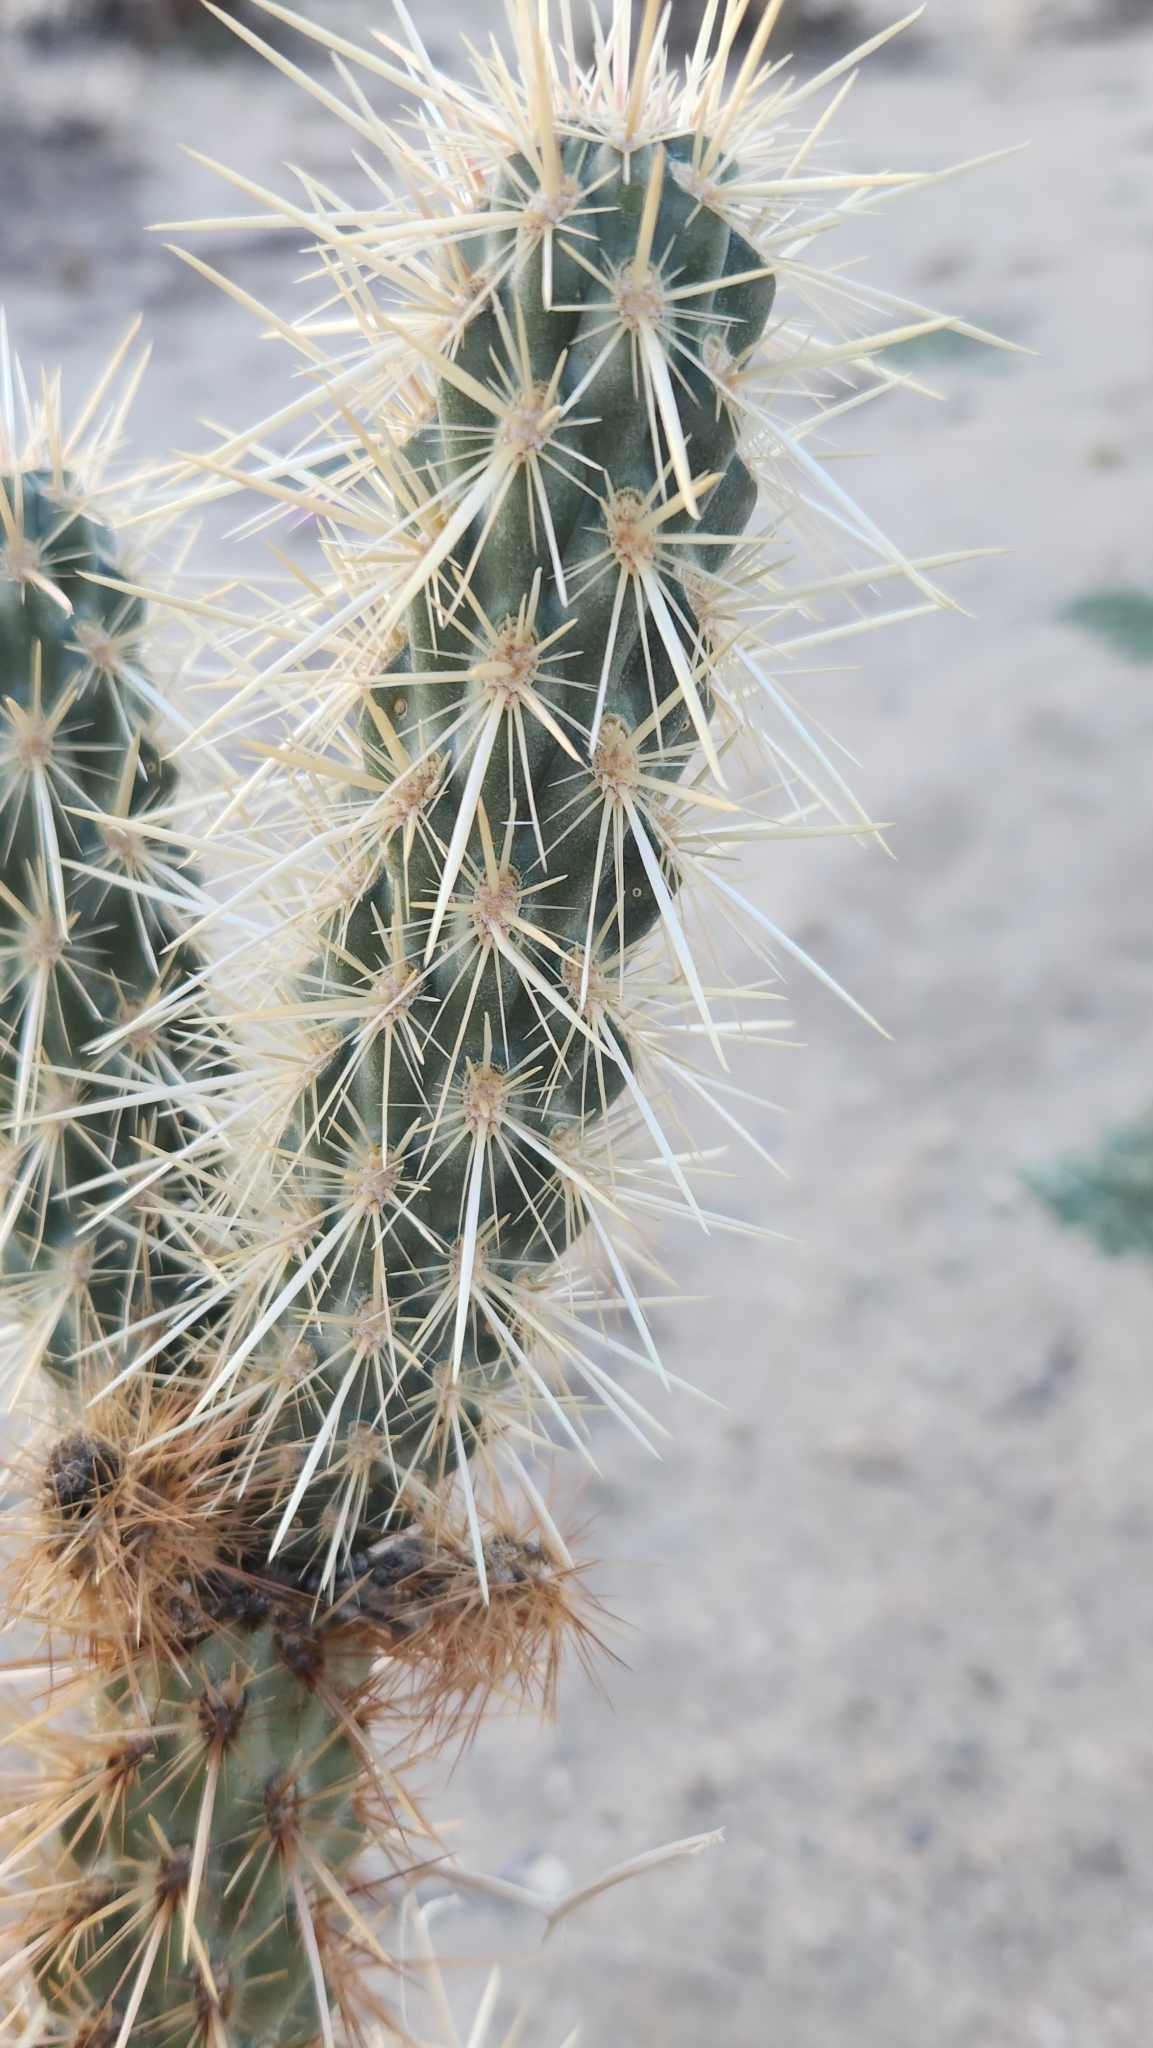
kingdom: Plantae
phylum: Tracheophyta
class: Magnoliopsida
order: Caryophyllales
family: Cactaceae
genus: Cylindropuntia
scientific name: Cylindropuntia ganderi
